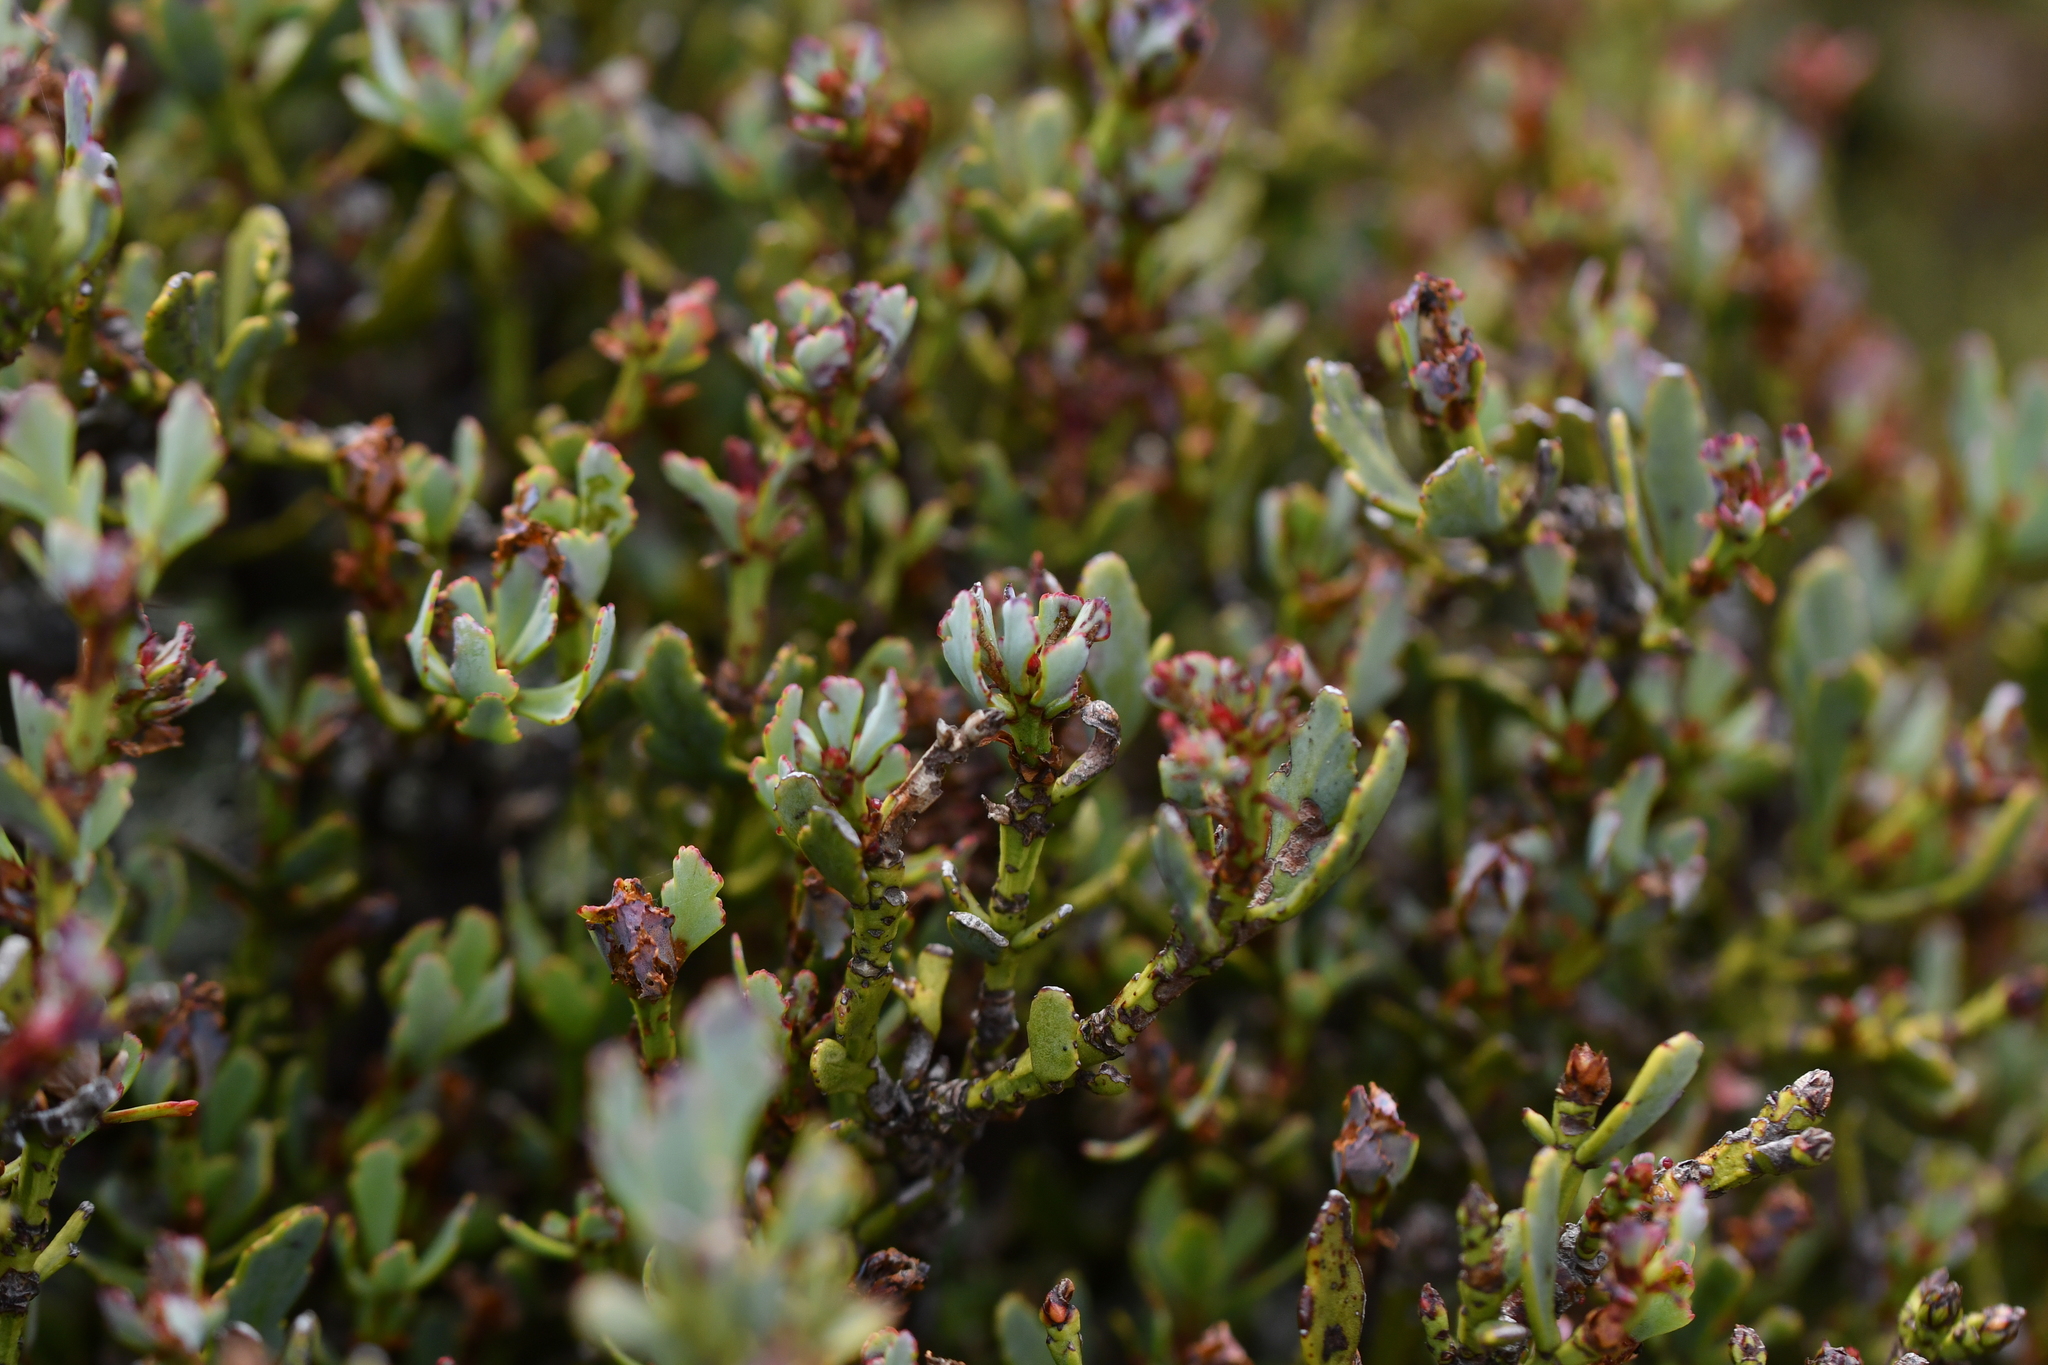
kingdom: Plantae
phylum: Tracheophyta
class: Pinopsida
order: Pinales
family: Phyllocladaceae
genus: Phyllocladus
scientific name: Phyllocladus trichomanoides
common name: Celery pine
